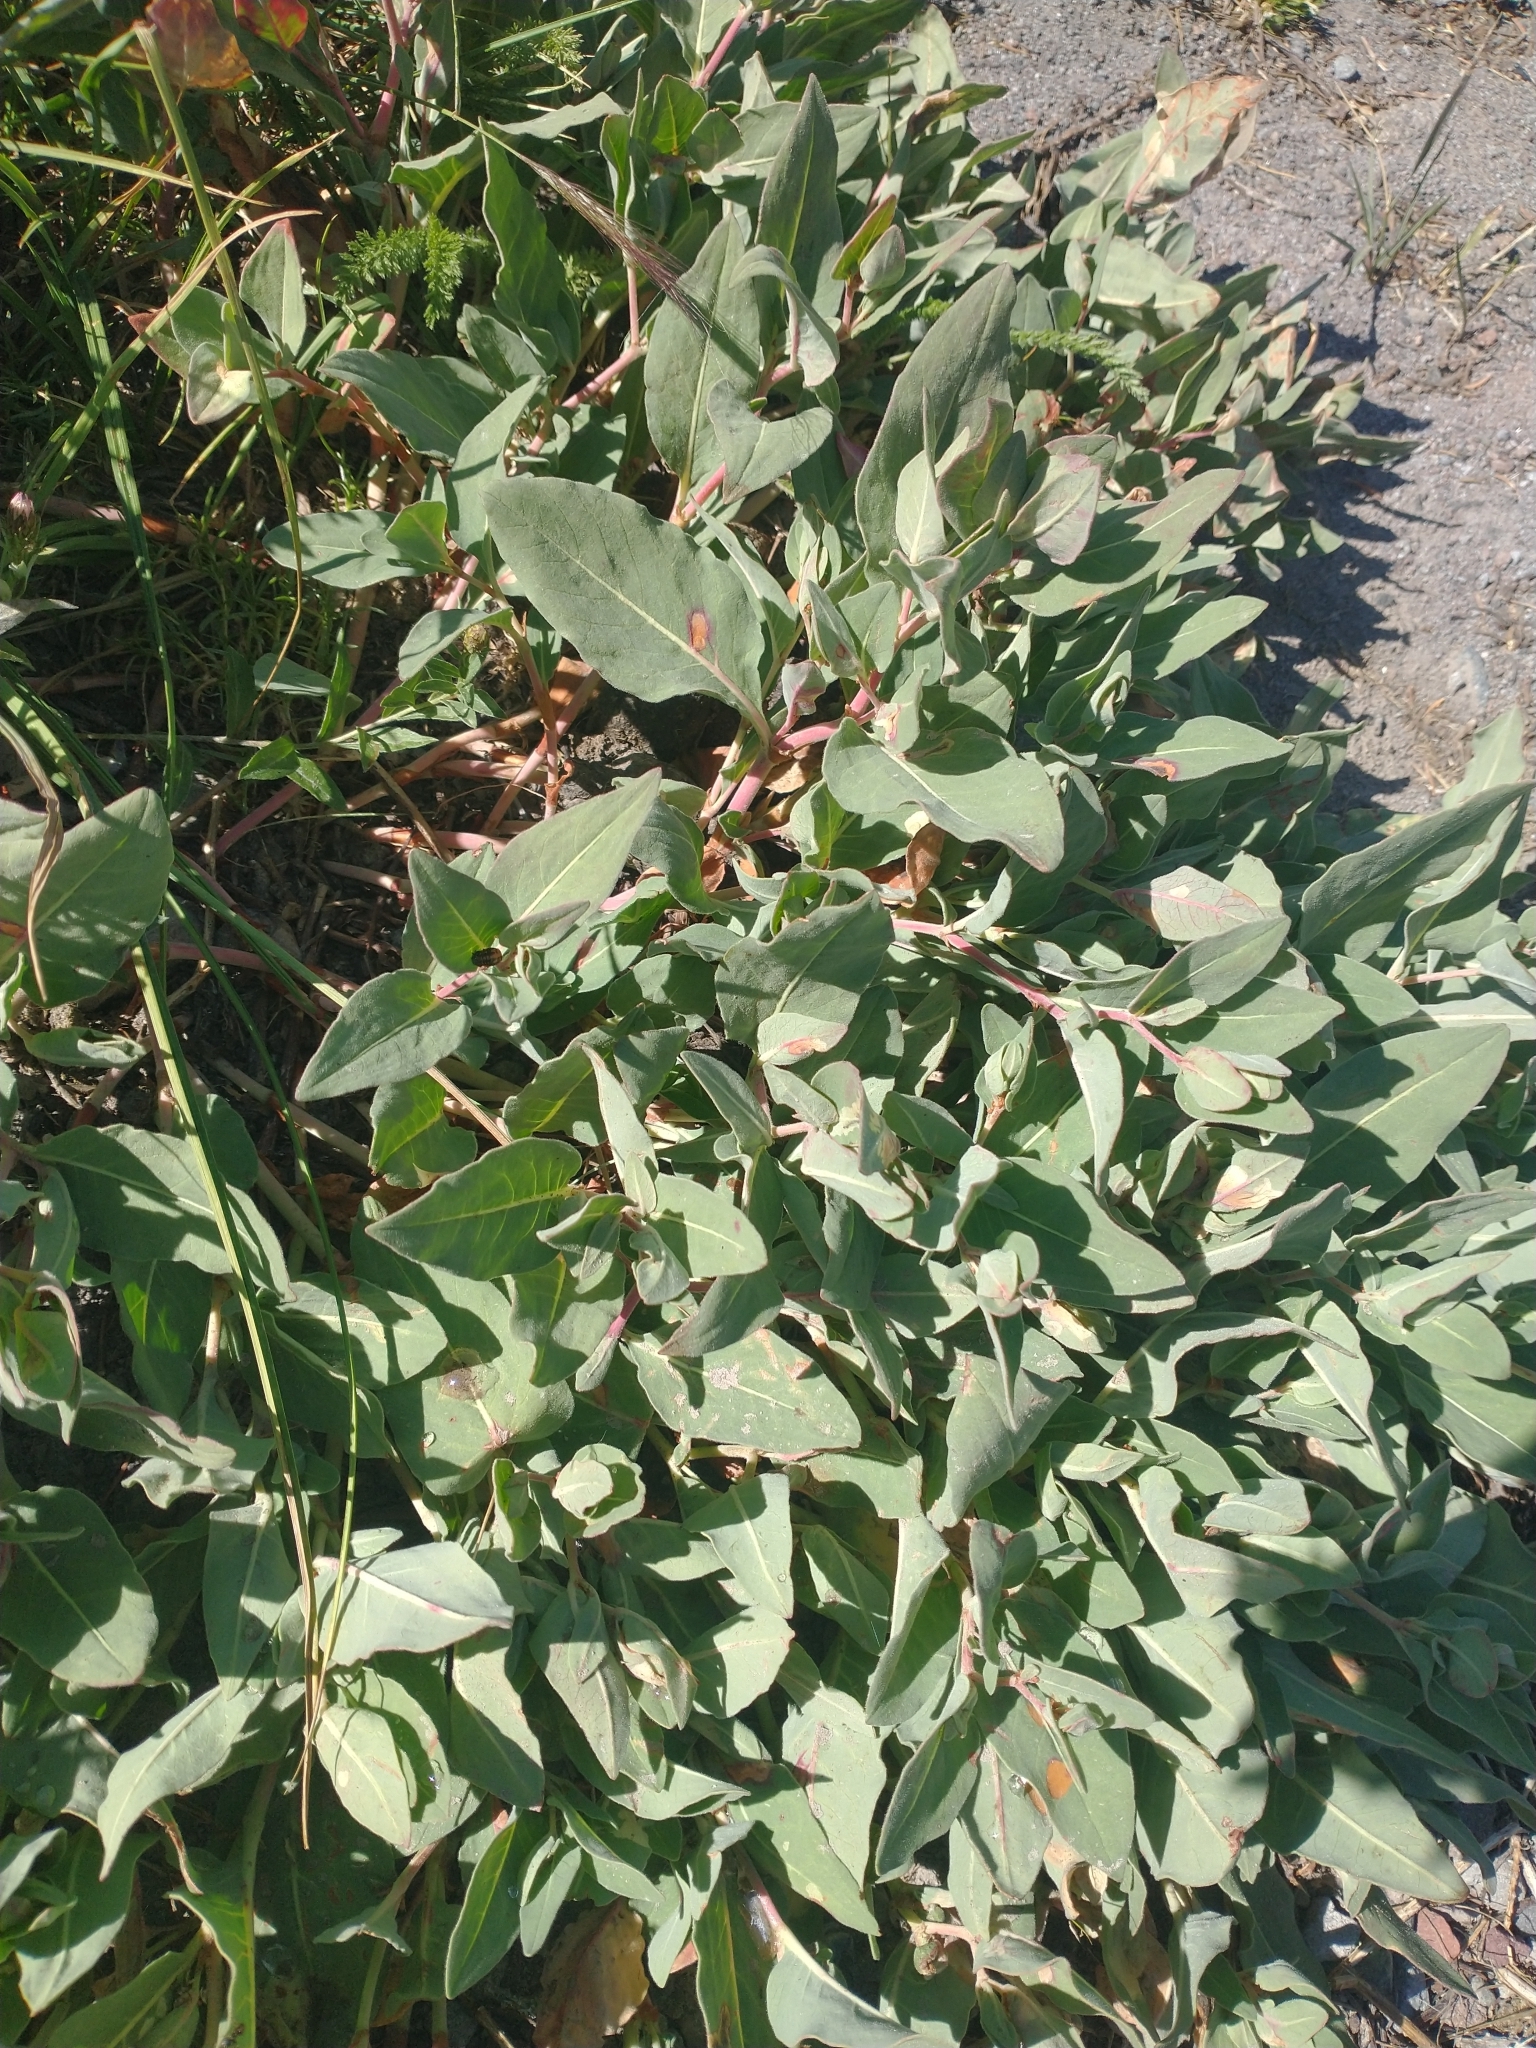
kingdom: Plantae
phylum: Tracheophyta
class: Magnoliopsida
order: Caryophyllales
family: Polygonaceae
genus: Koenigia
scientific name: Koenigia davisiae
